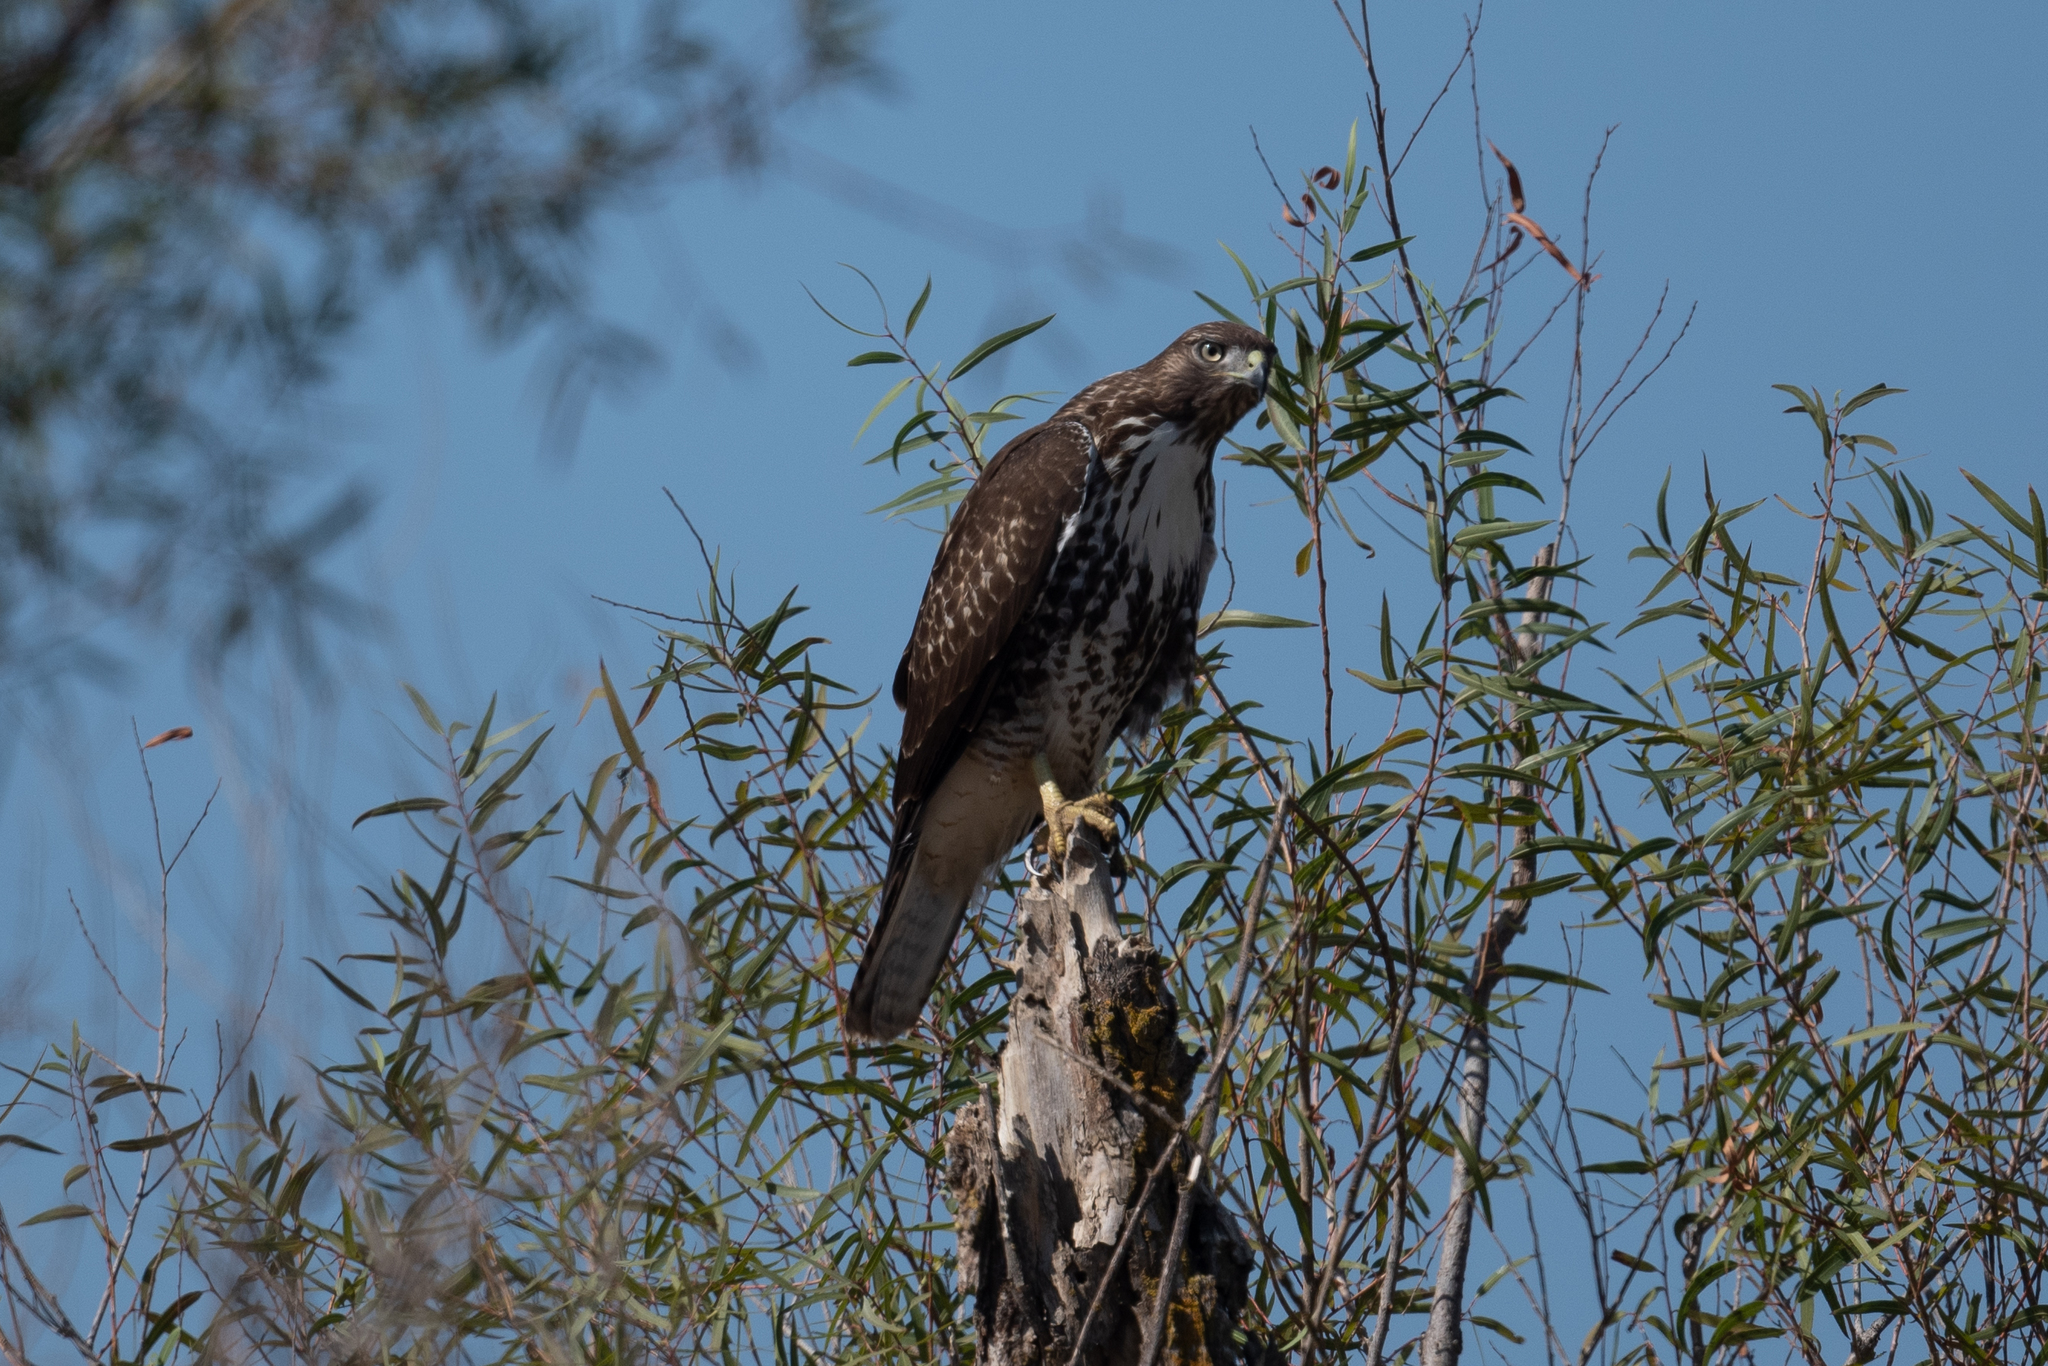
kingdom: Animalia
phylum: Chordata
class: Aves
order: Accipitriformes
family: Accipitridae
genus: Buteo
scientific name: Buteo jamaicensis
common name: Red-tailed hawk
